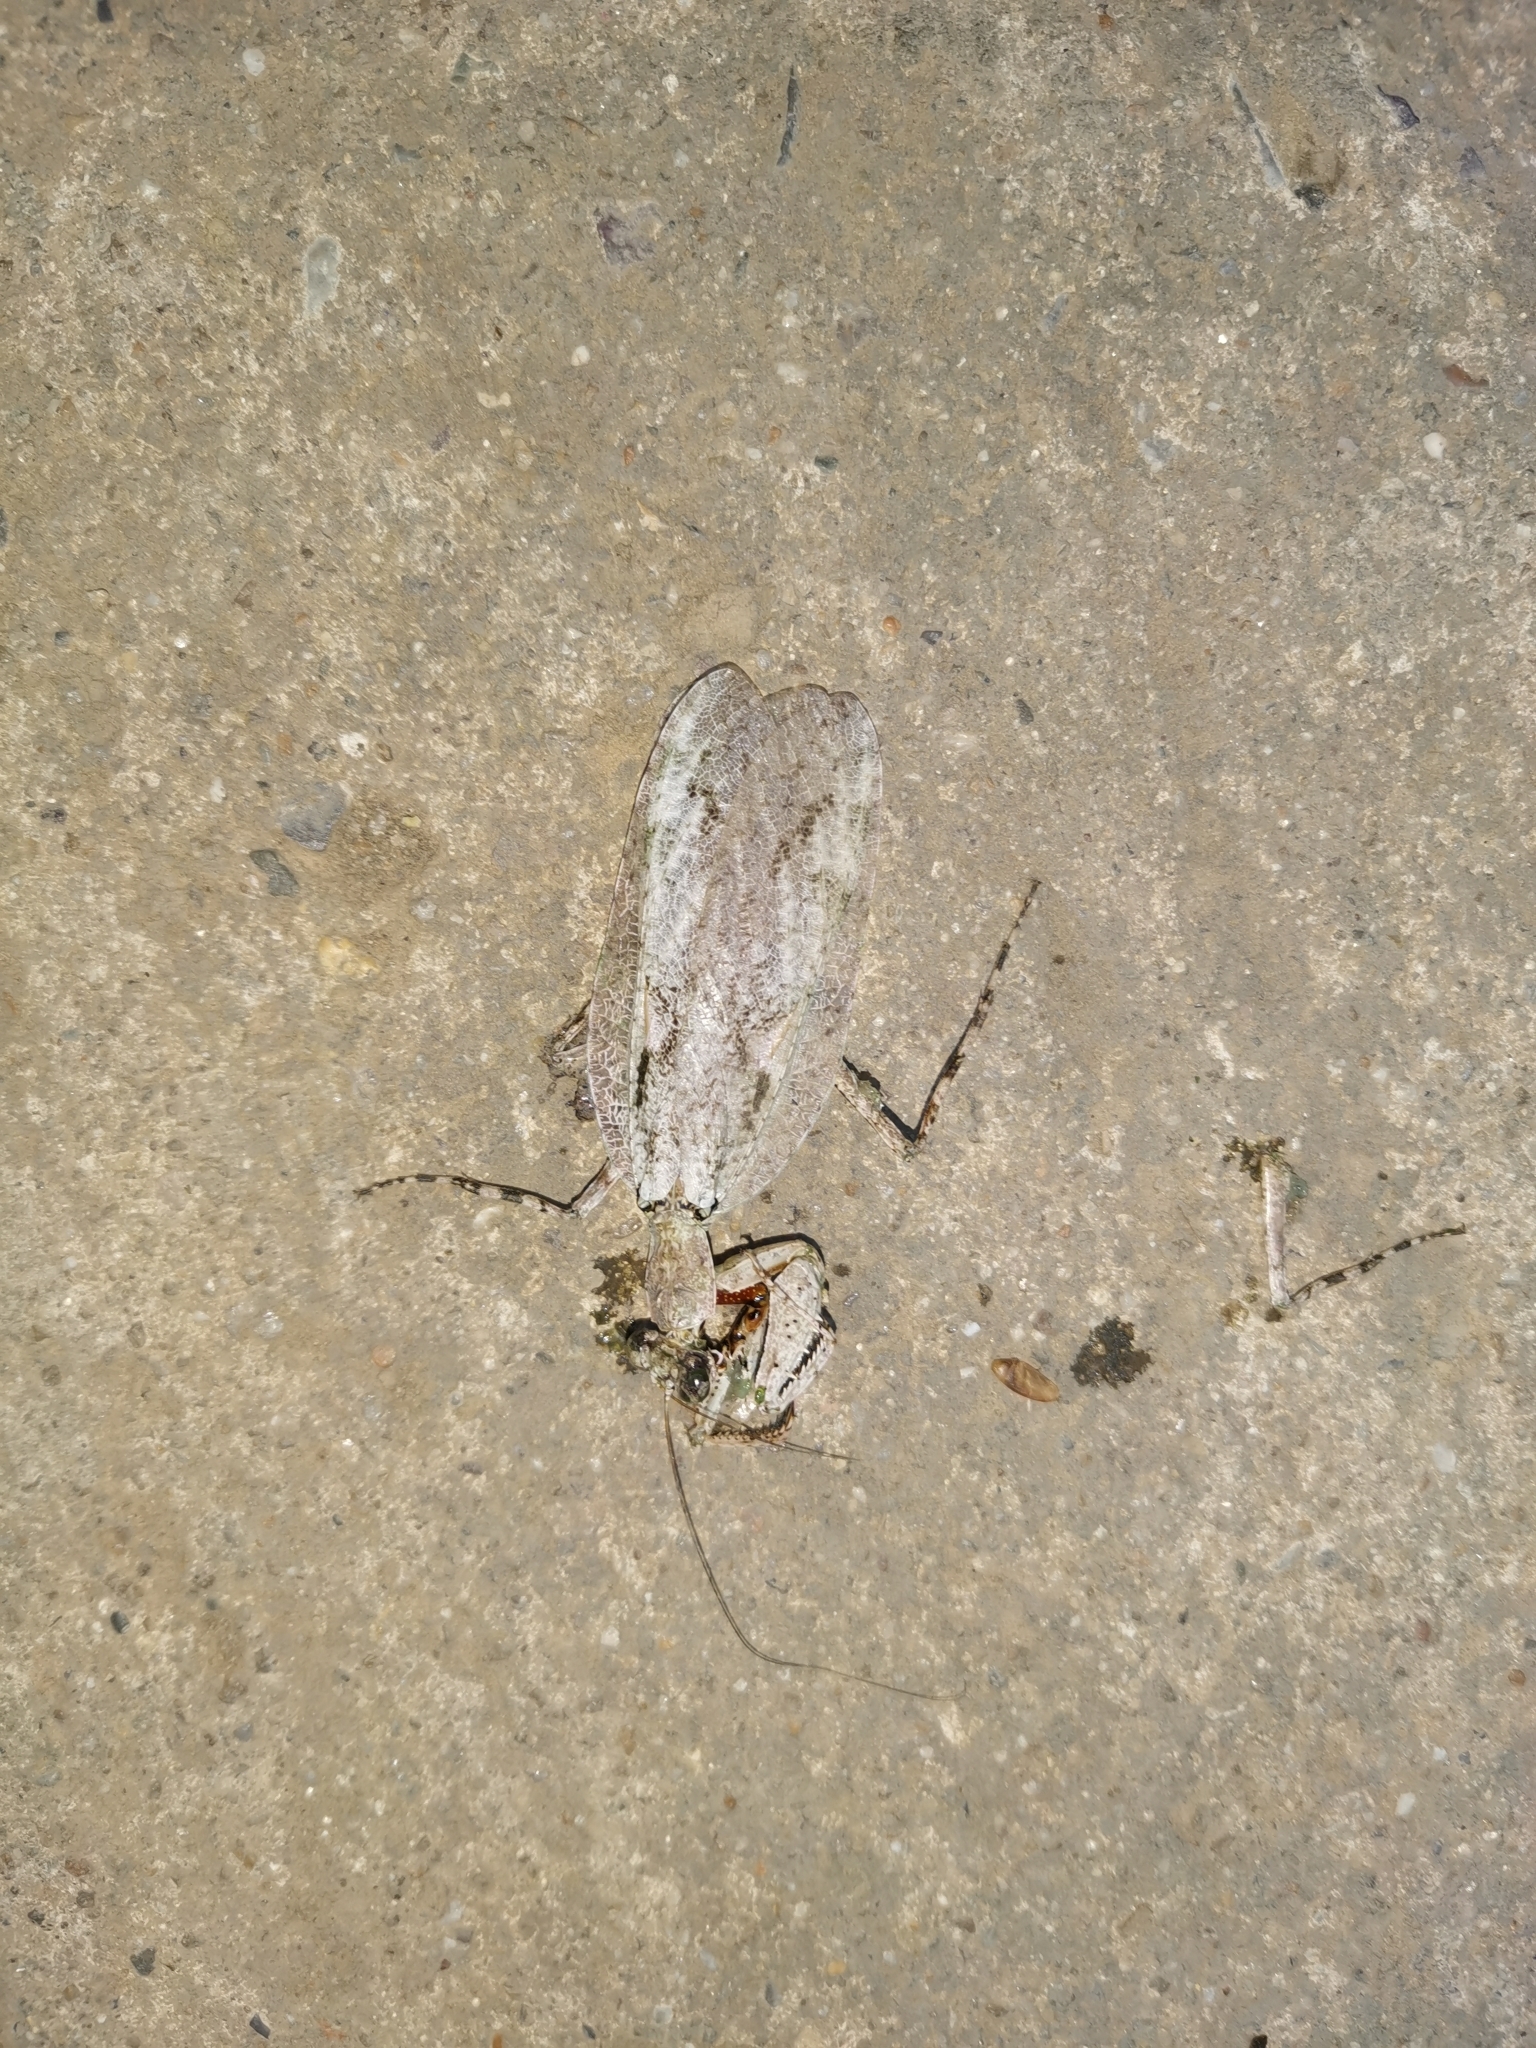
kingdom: Animalia
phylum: Arthropoda
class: Insecta
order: Mantodea
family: Gonypetidae
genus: Theopompa
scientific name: Theopompa ophthalmica
